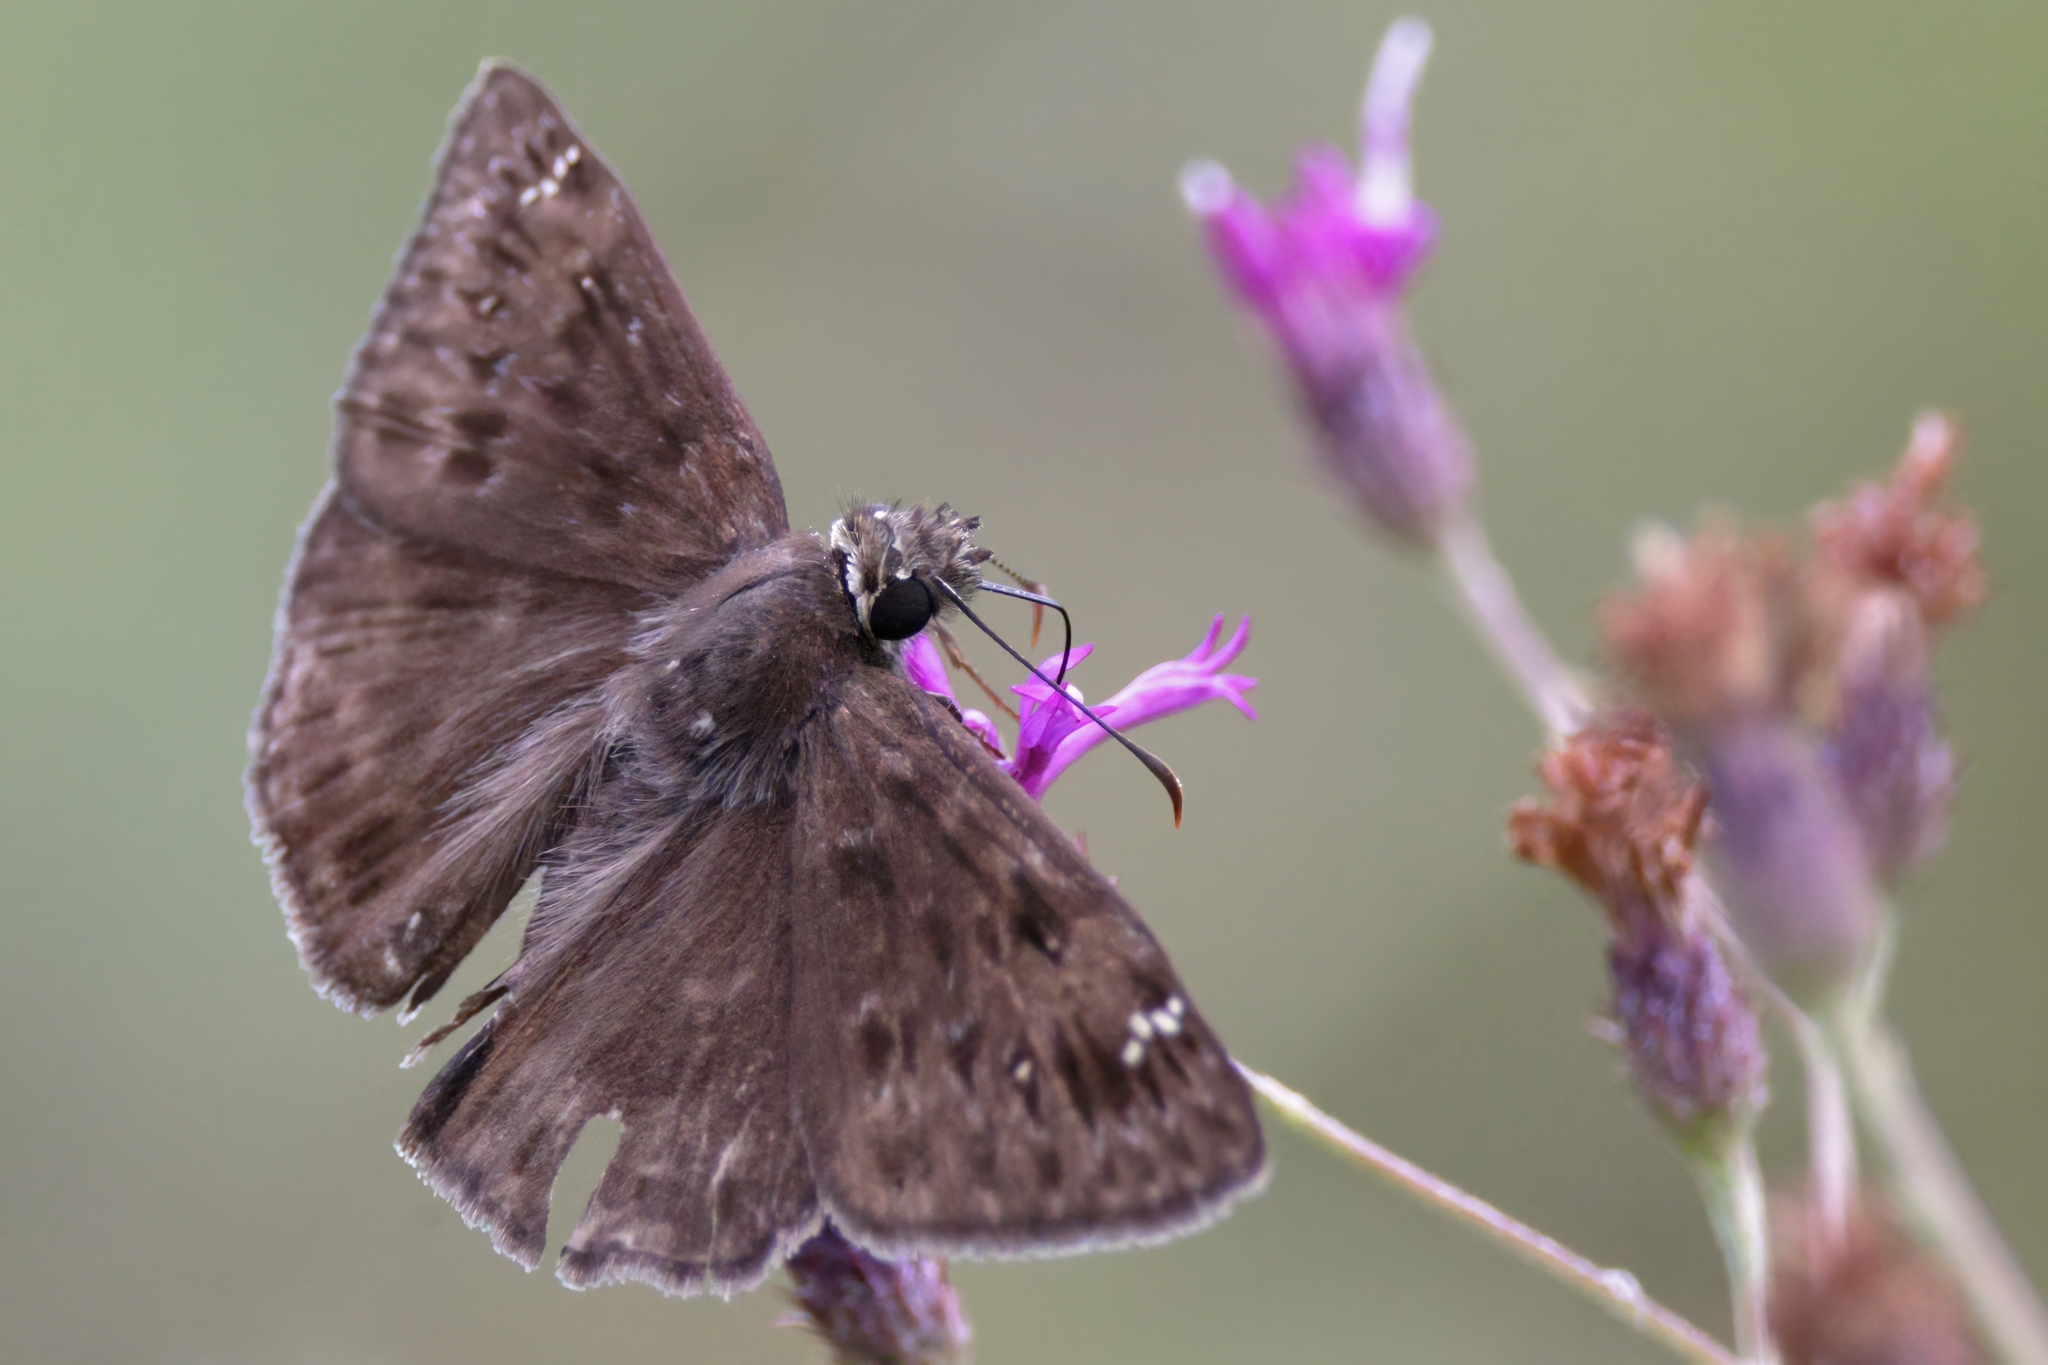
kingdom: Animalia
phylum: Arthropoda
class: Insecta
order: Lepidoptera
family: Hesperiidae
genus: Erynnis
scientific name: Erynnis horatius
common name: Horace's duskywing
